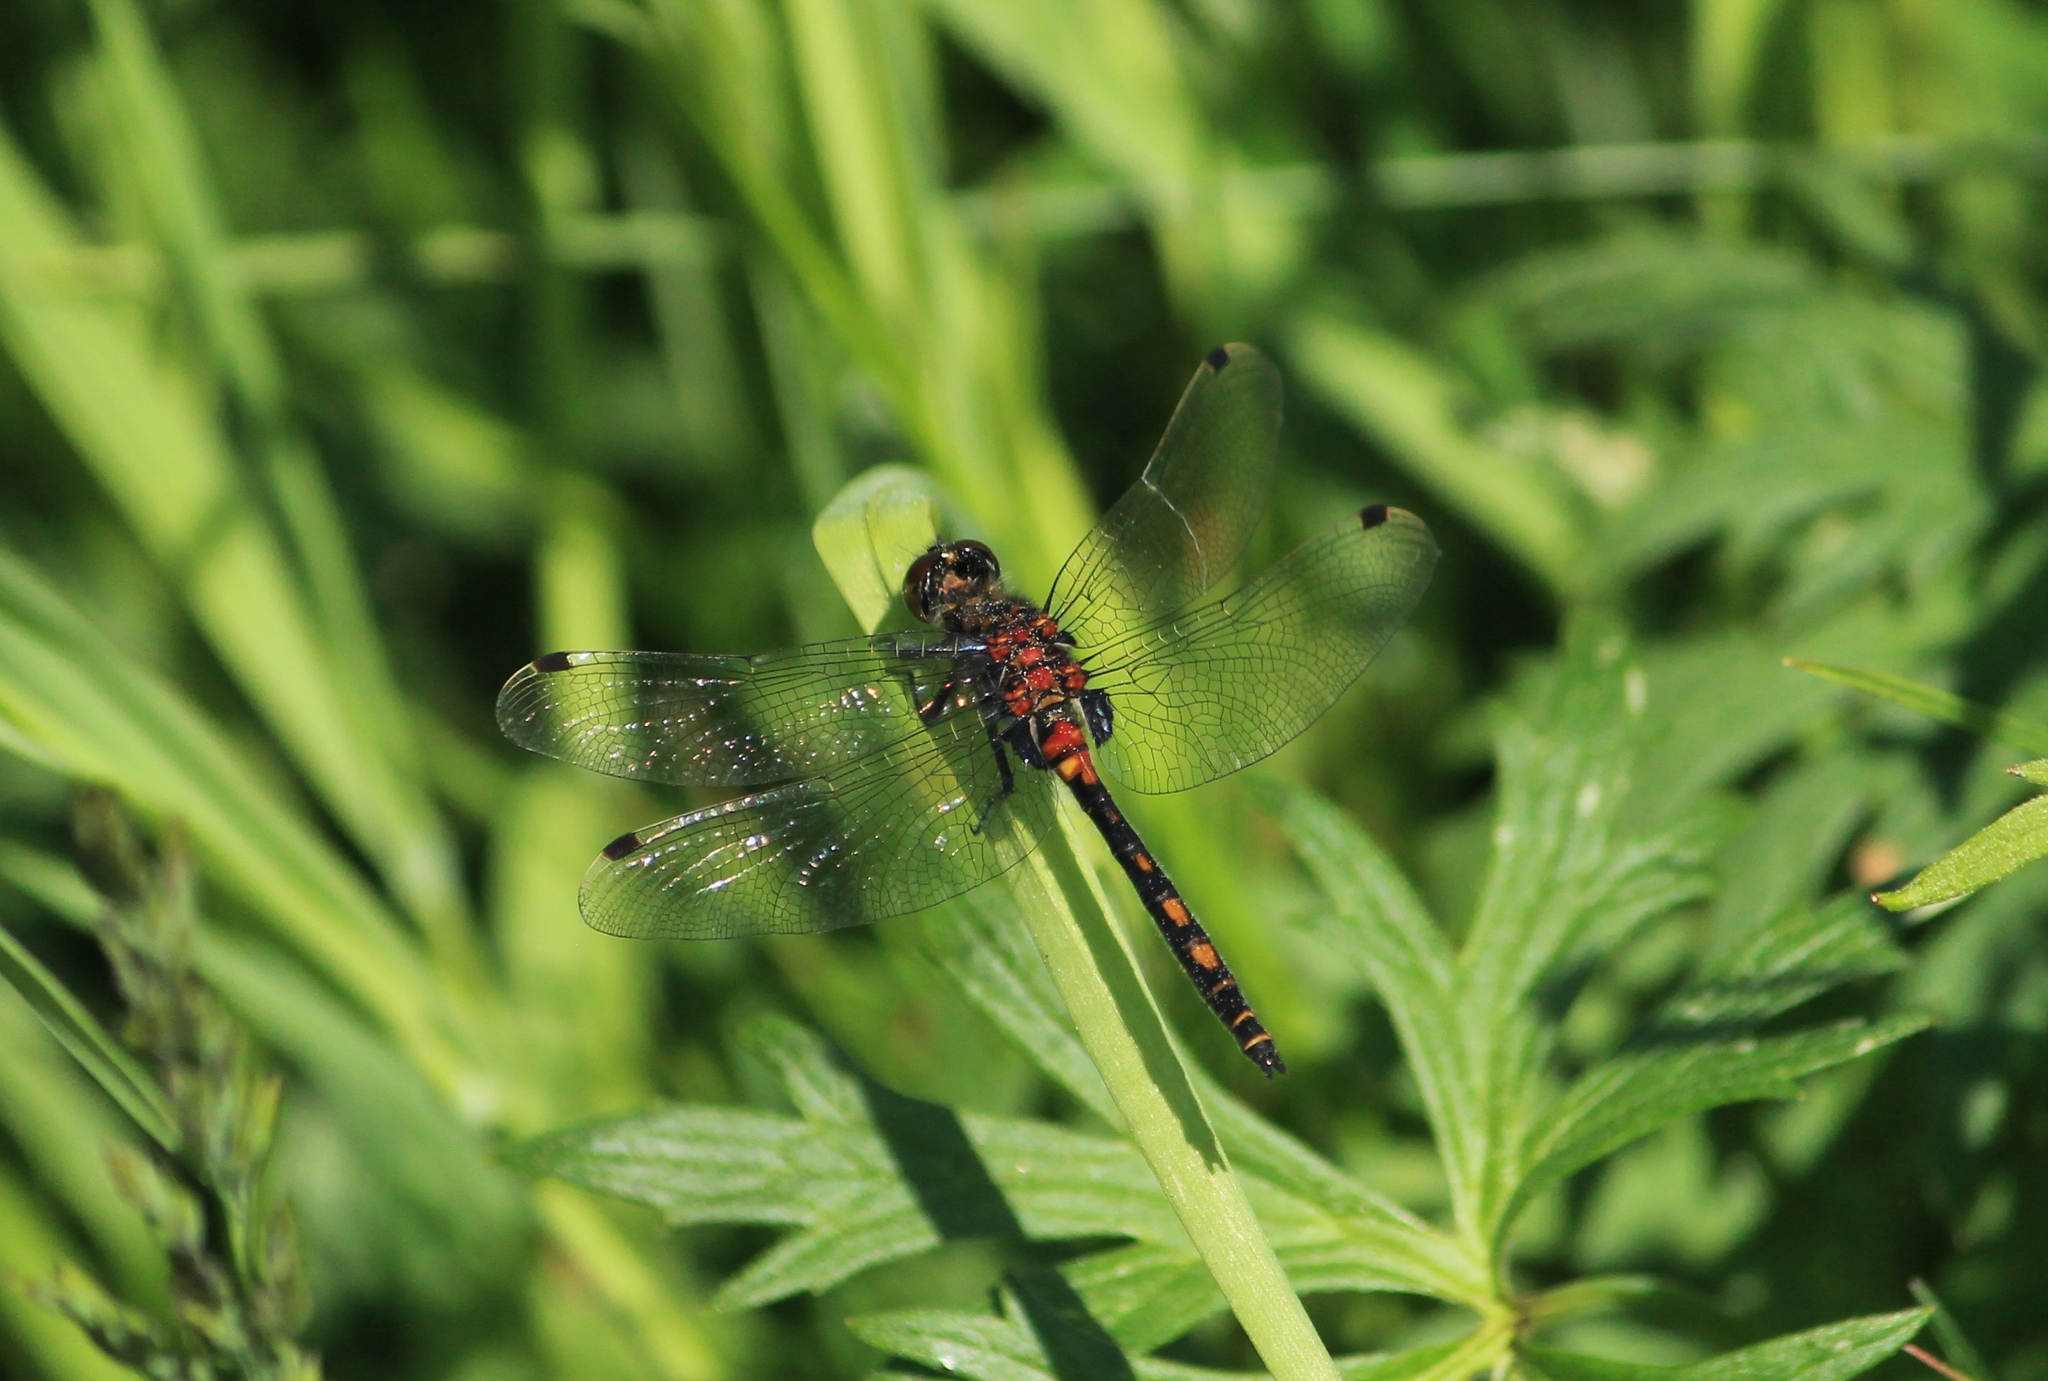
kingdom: Animalia
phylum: Arthropoda
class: Insecta
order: Odonata
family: Libellulidae
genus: Leucorrhinia
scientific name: Leucorrhinia dubia
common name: White-faced darter
